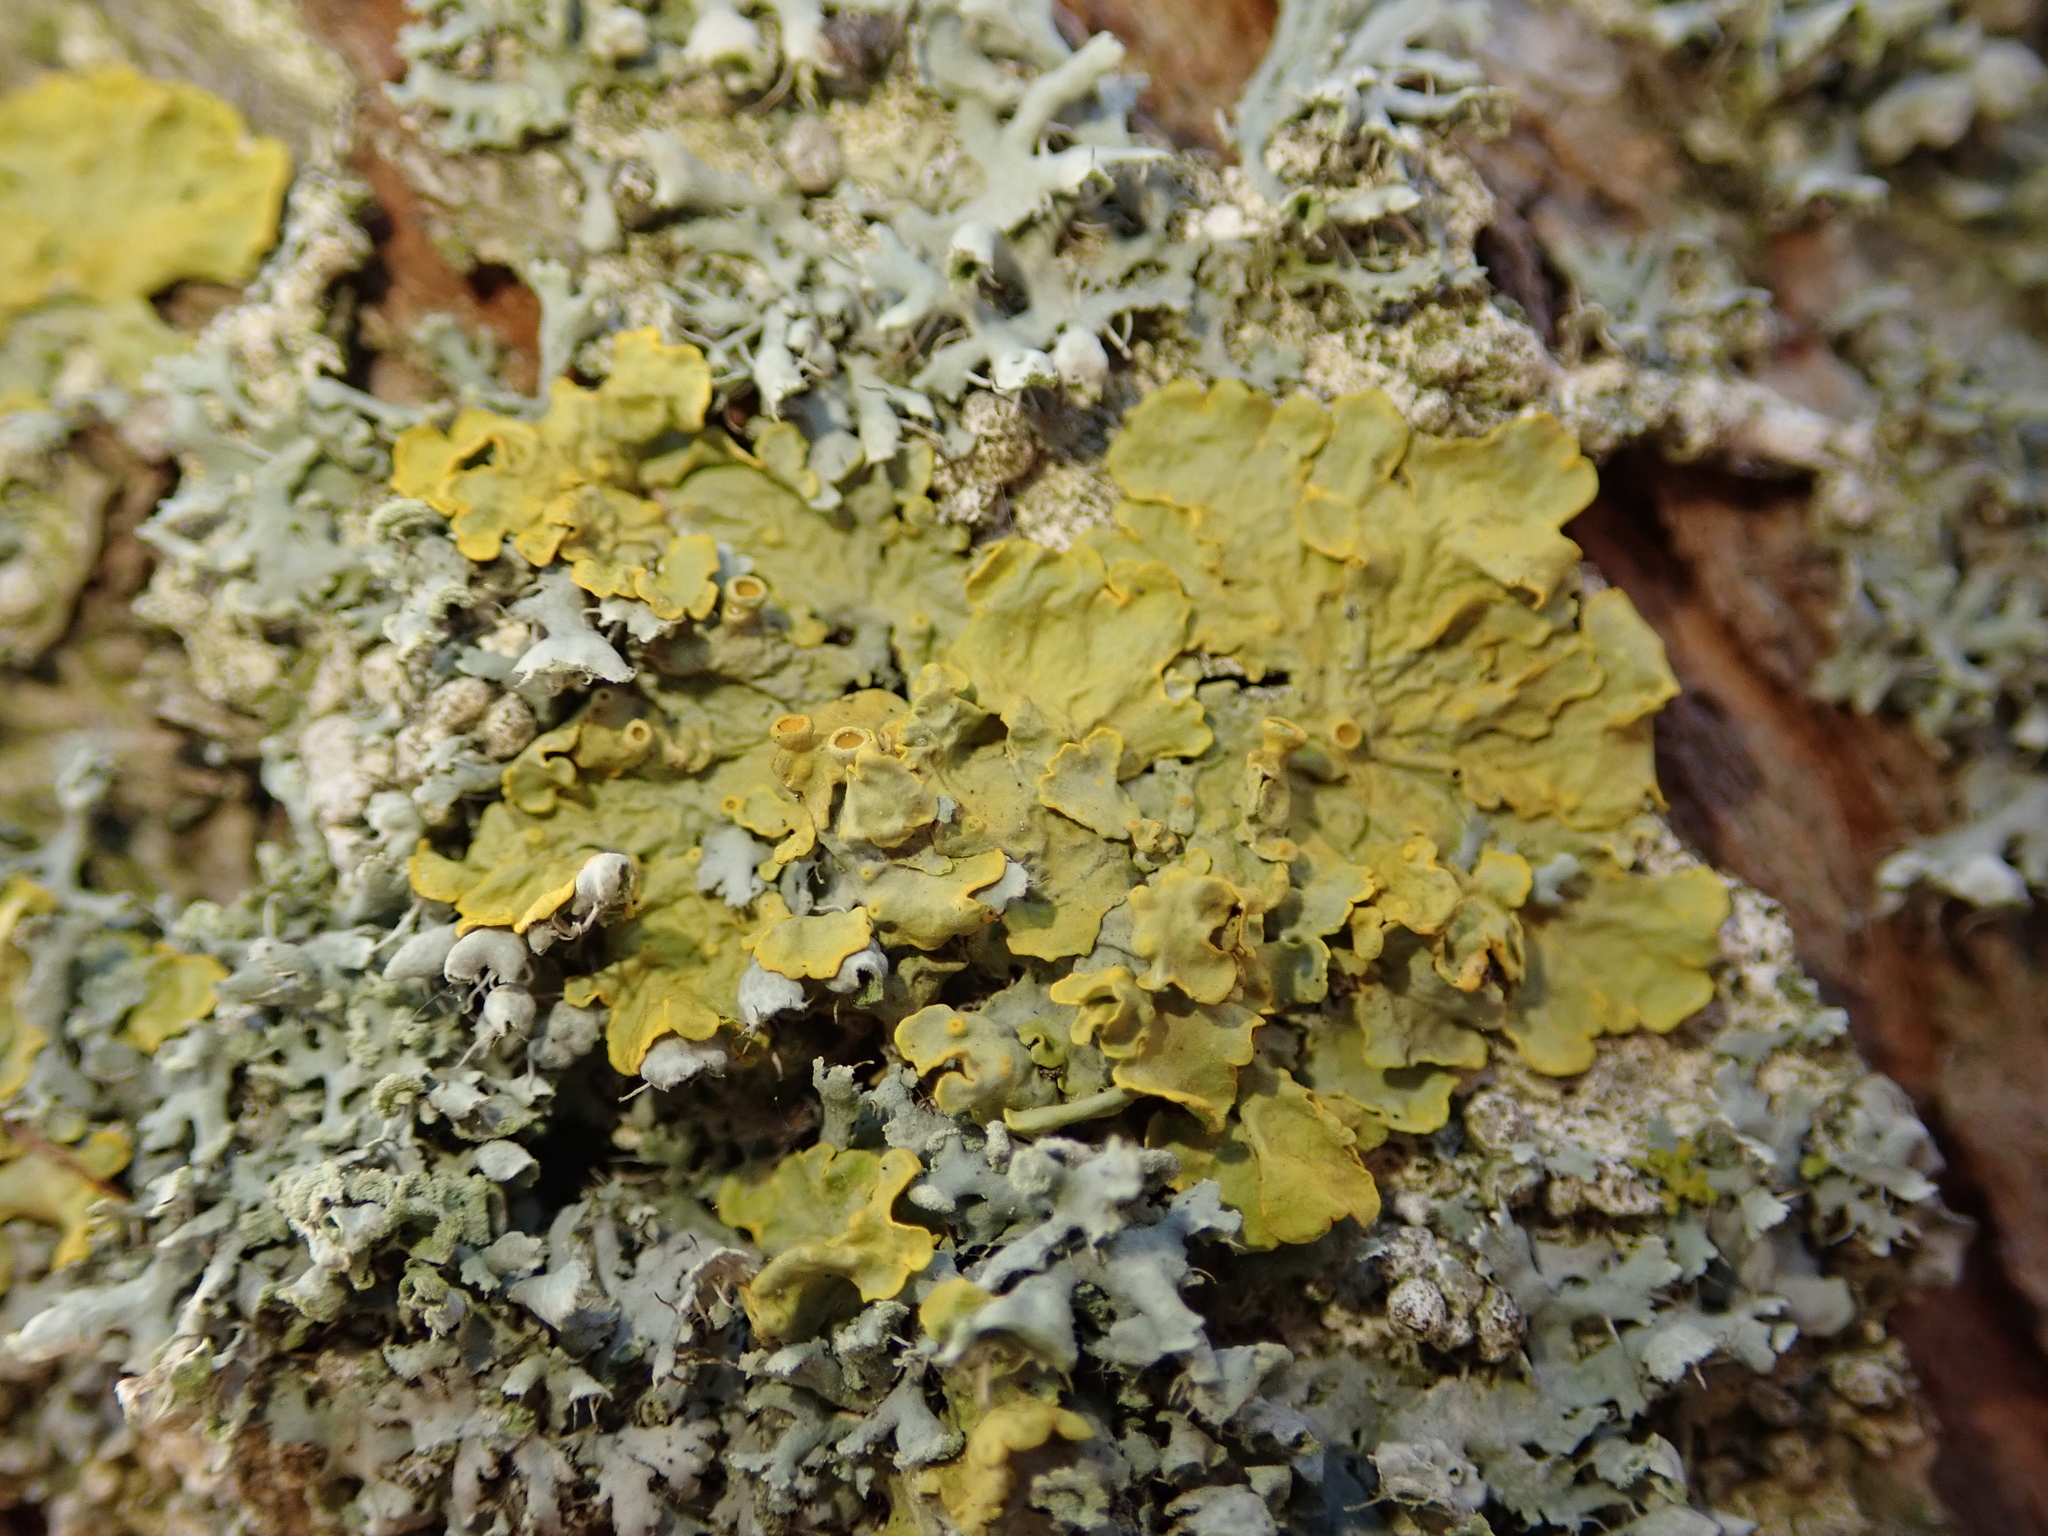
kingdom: Fungi
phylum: Ascomycota
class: Lecanoromycetes
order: Teloschistales
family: Teloschistaceae
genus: Xanthoria
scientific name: Xanthoria parietina
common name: Common orange lichen
